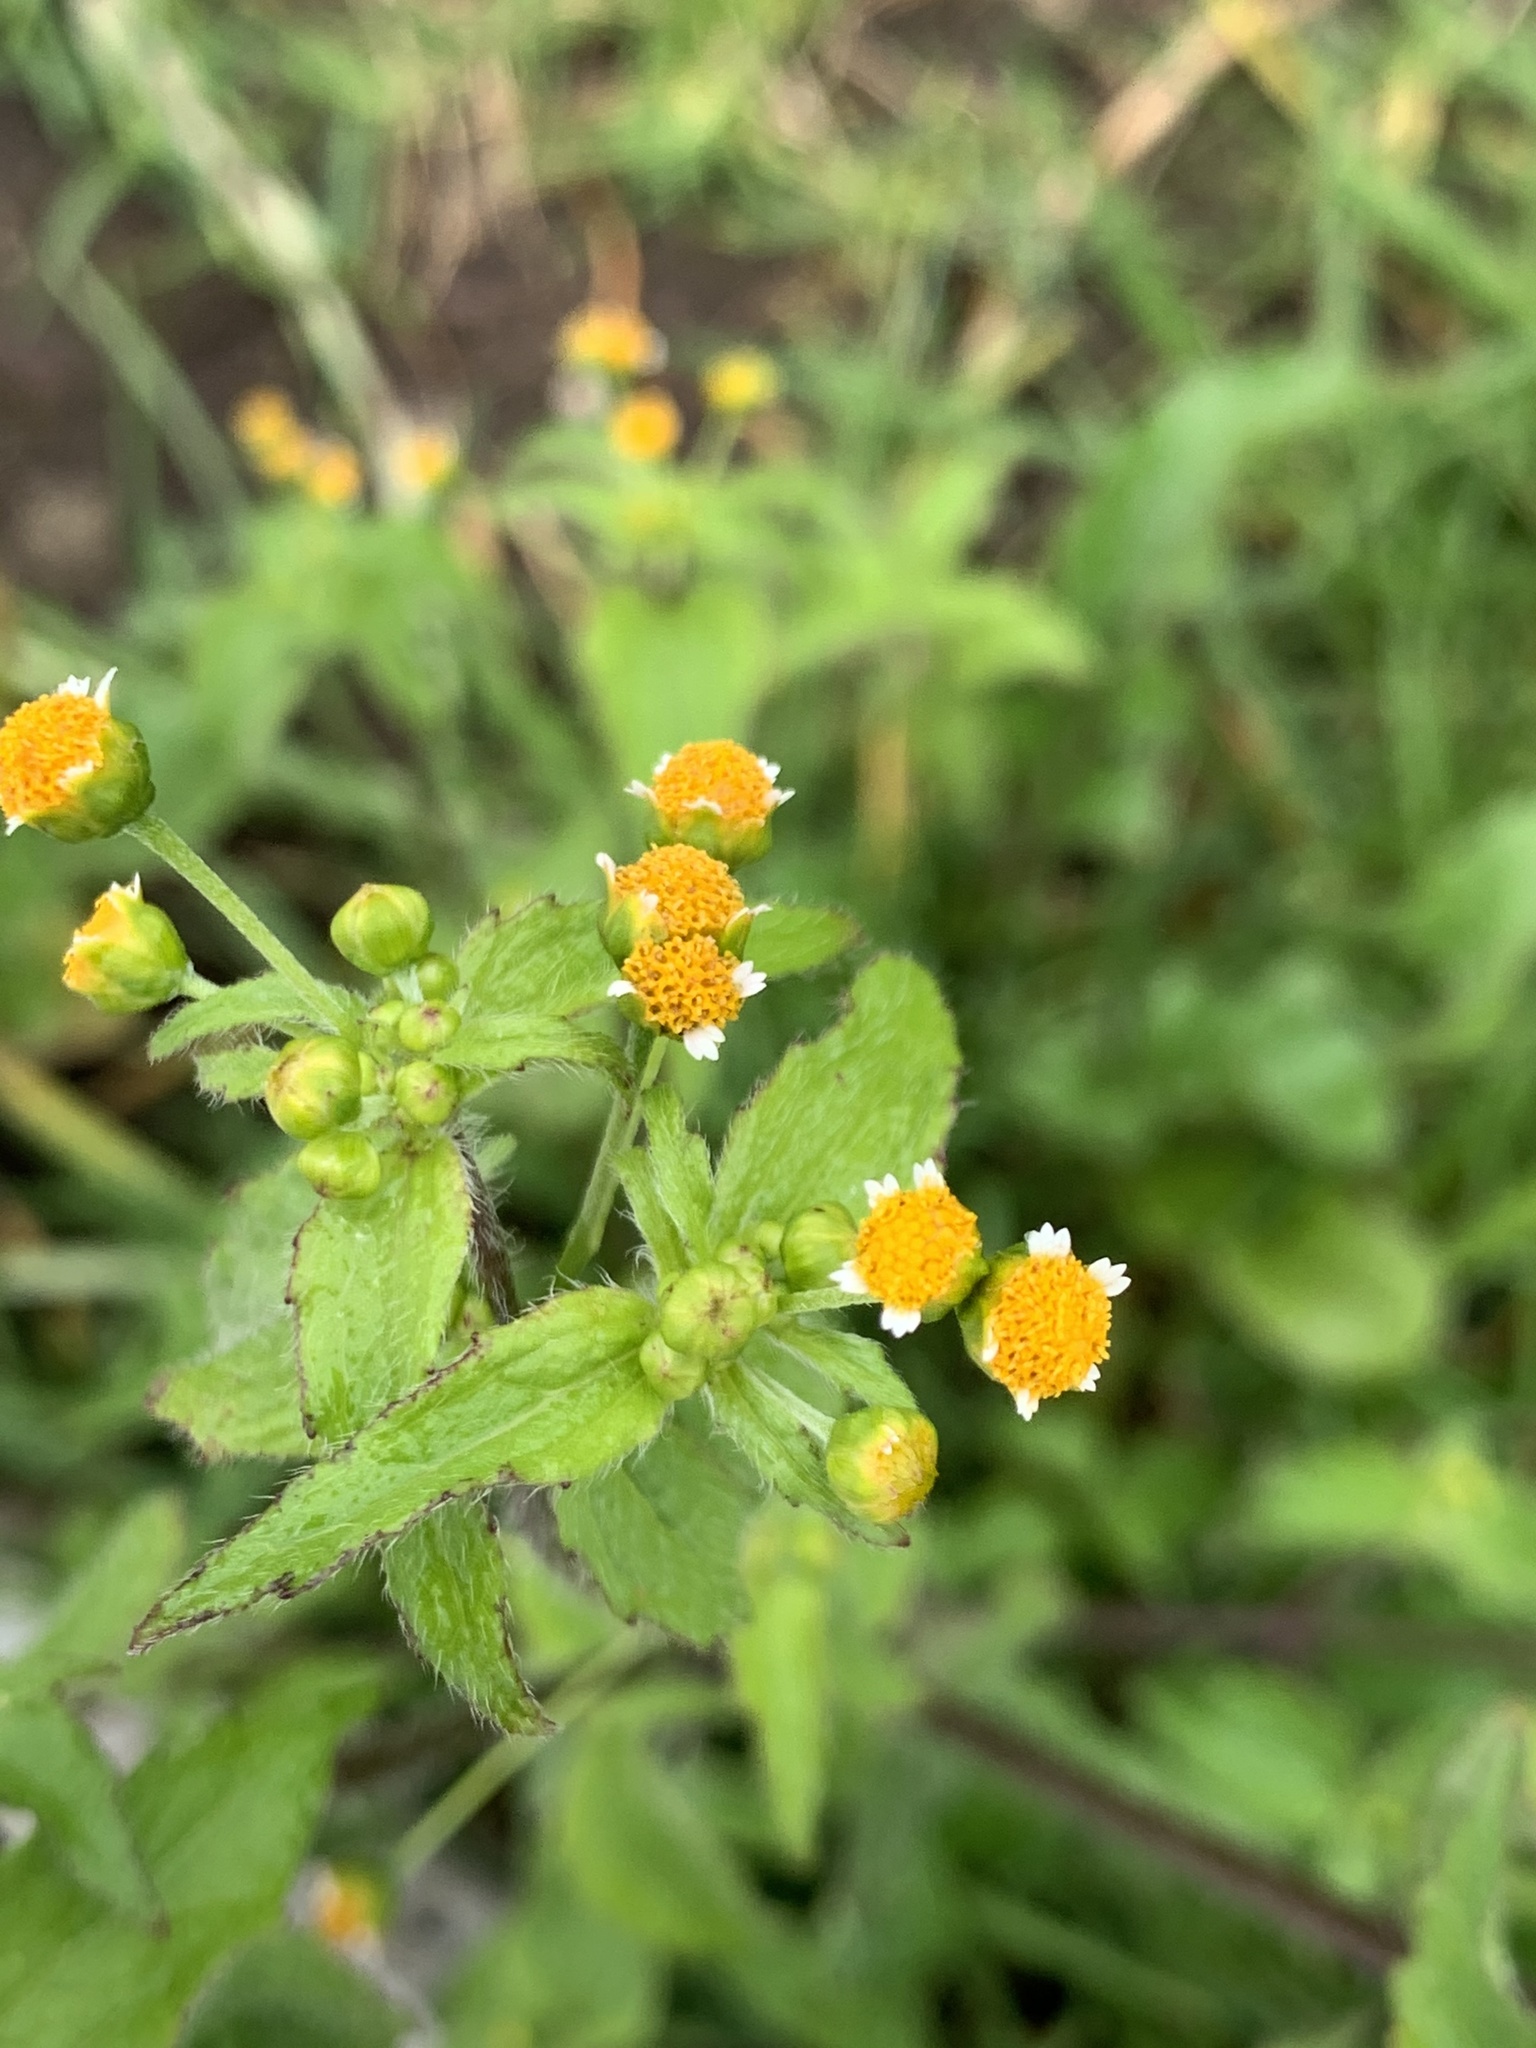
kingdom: Plantae
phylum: Tracheophyta
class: Magnoliopsida
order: Asterales
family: Asteraceae
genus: Galinsoga
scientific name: Galinsoga parviflora
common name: Gallant soldier
